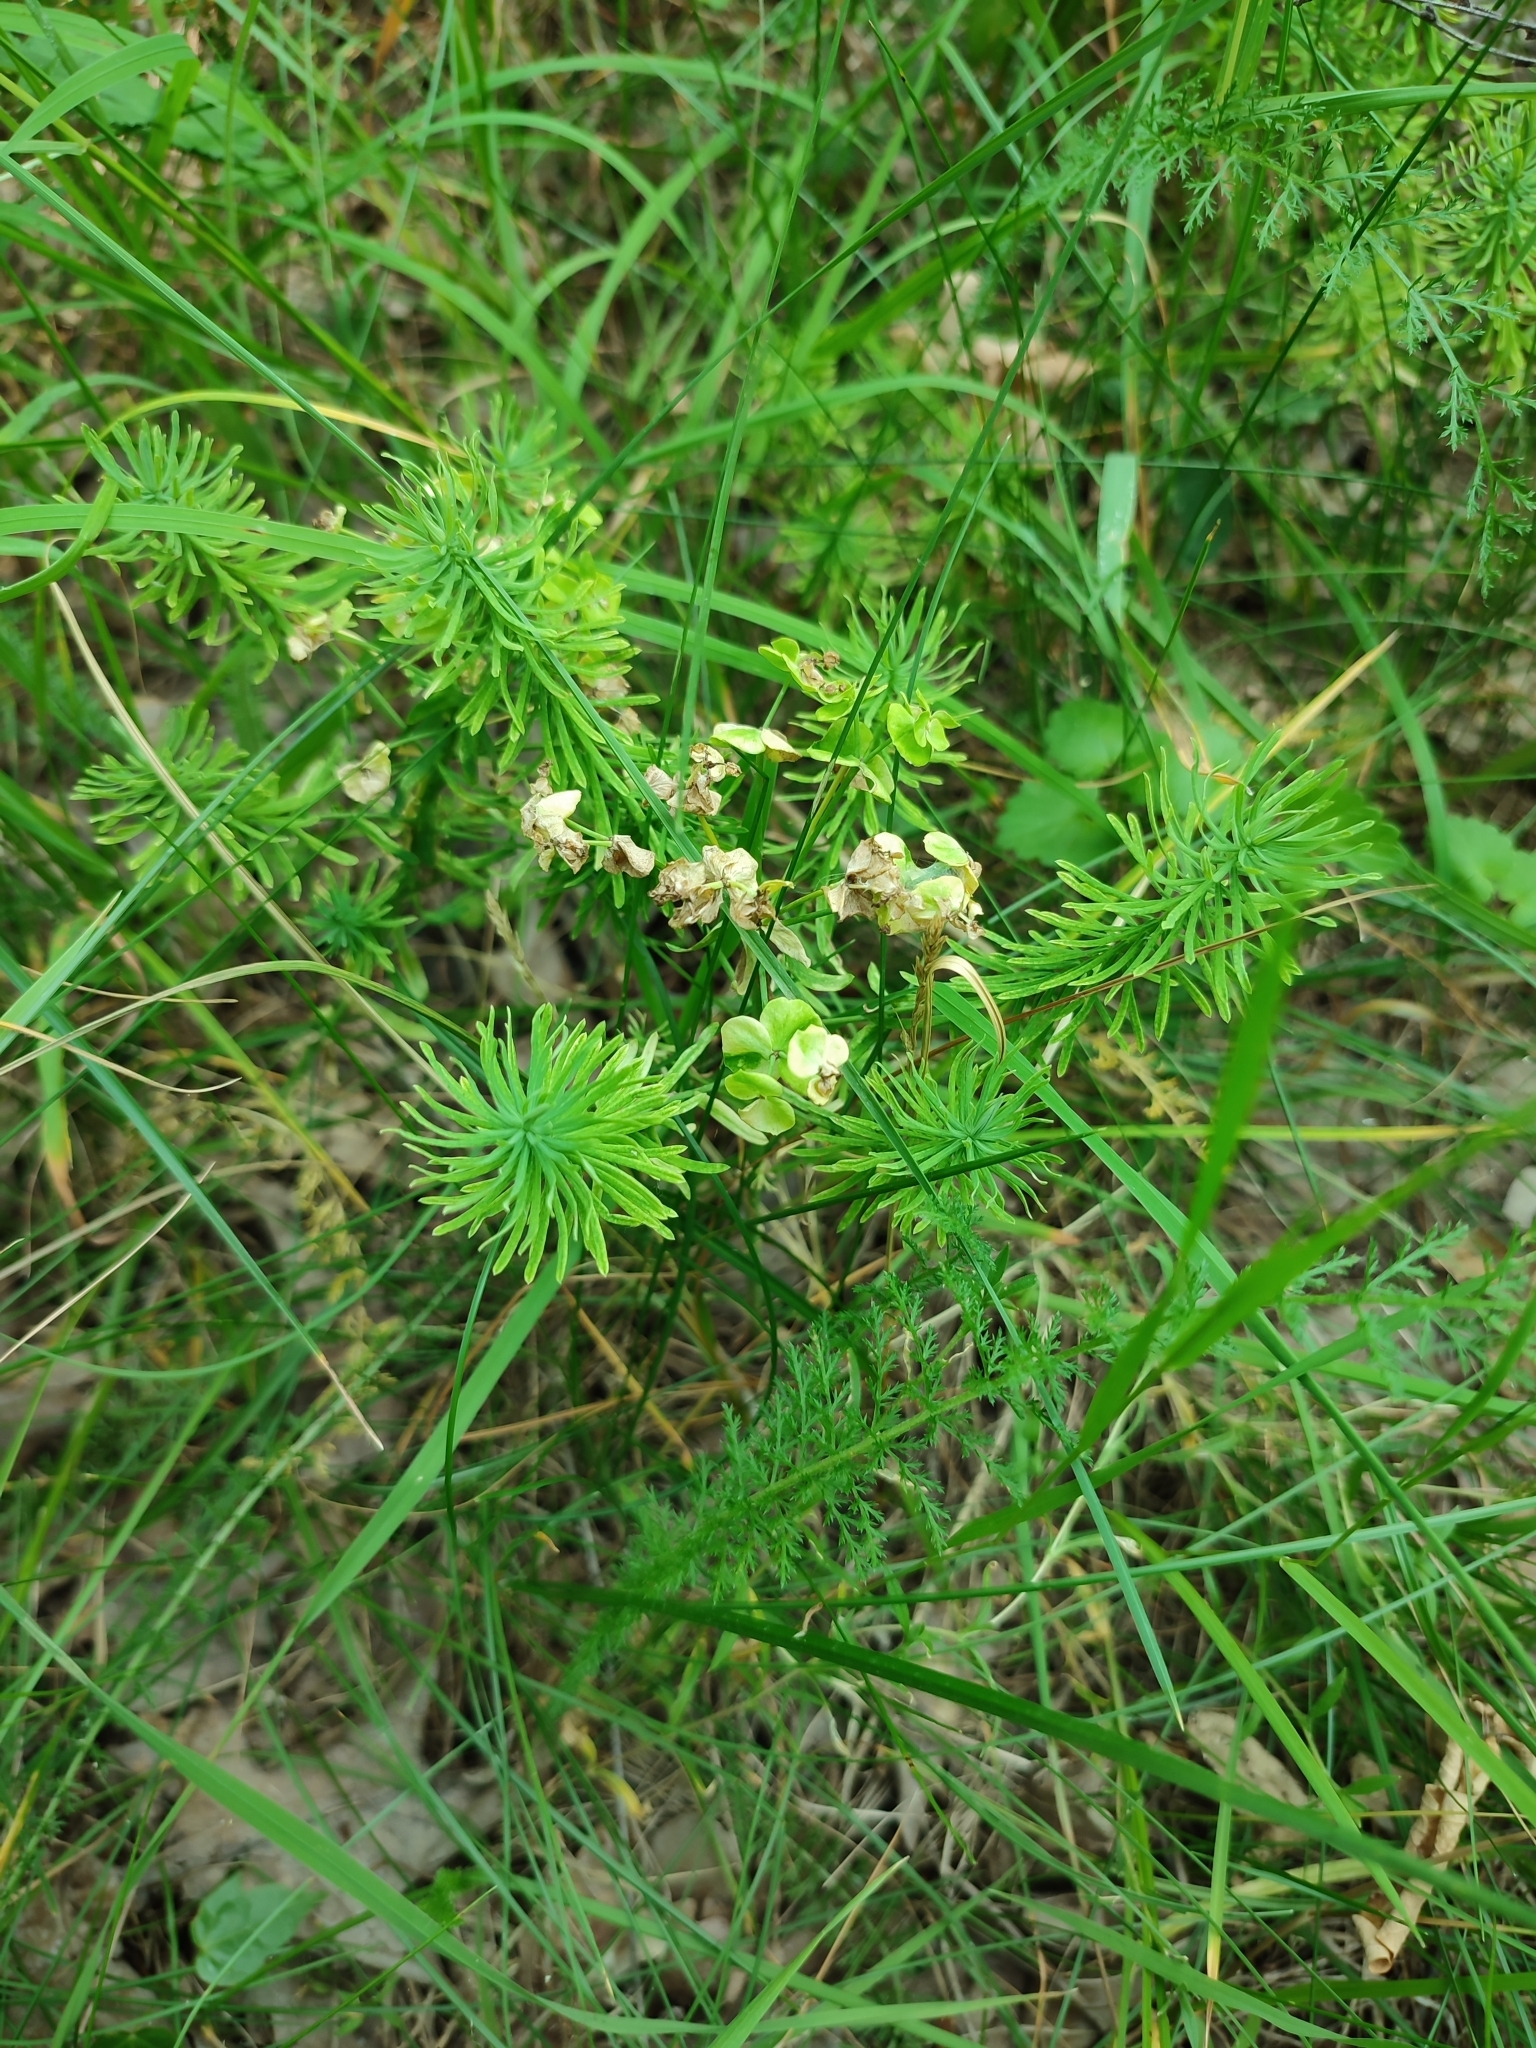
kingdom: Plantae
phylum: Tracheophyta
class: Magnoliopsida
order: Malpighiales
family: Euphorbiaceae
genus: Euphorbia
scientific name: Euphorbia cyparissias
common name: Cypress spurge
